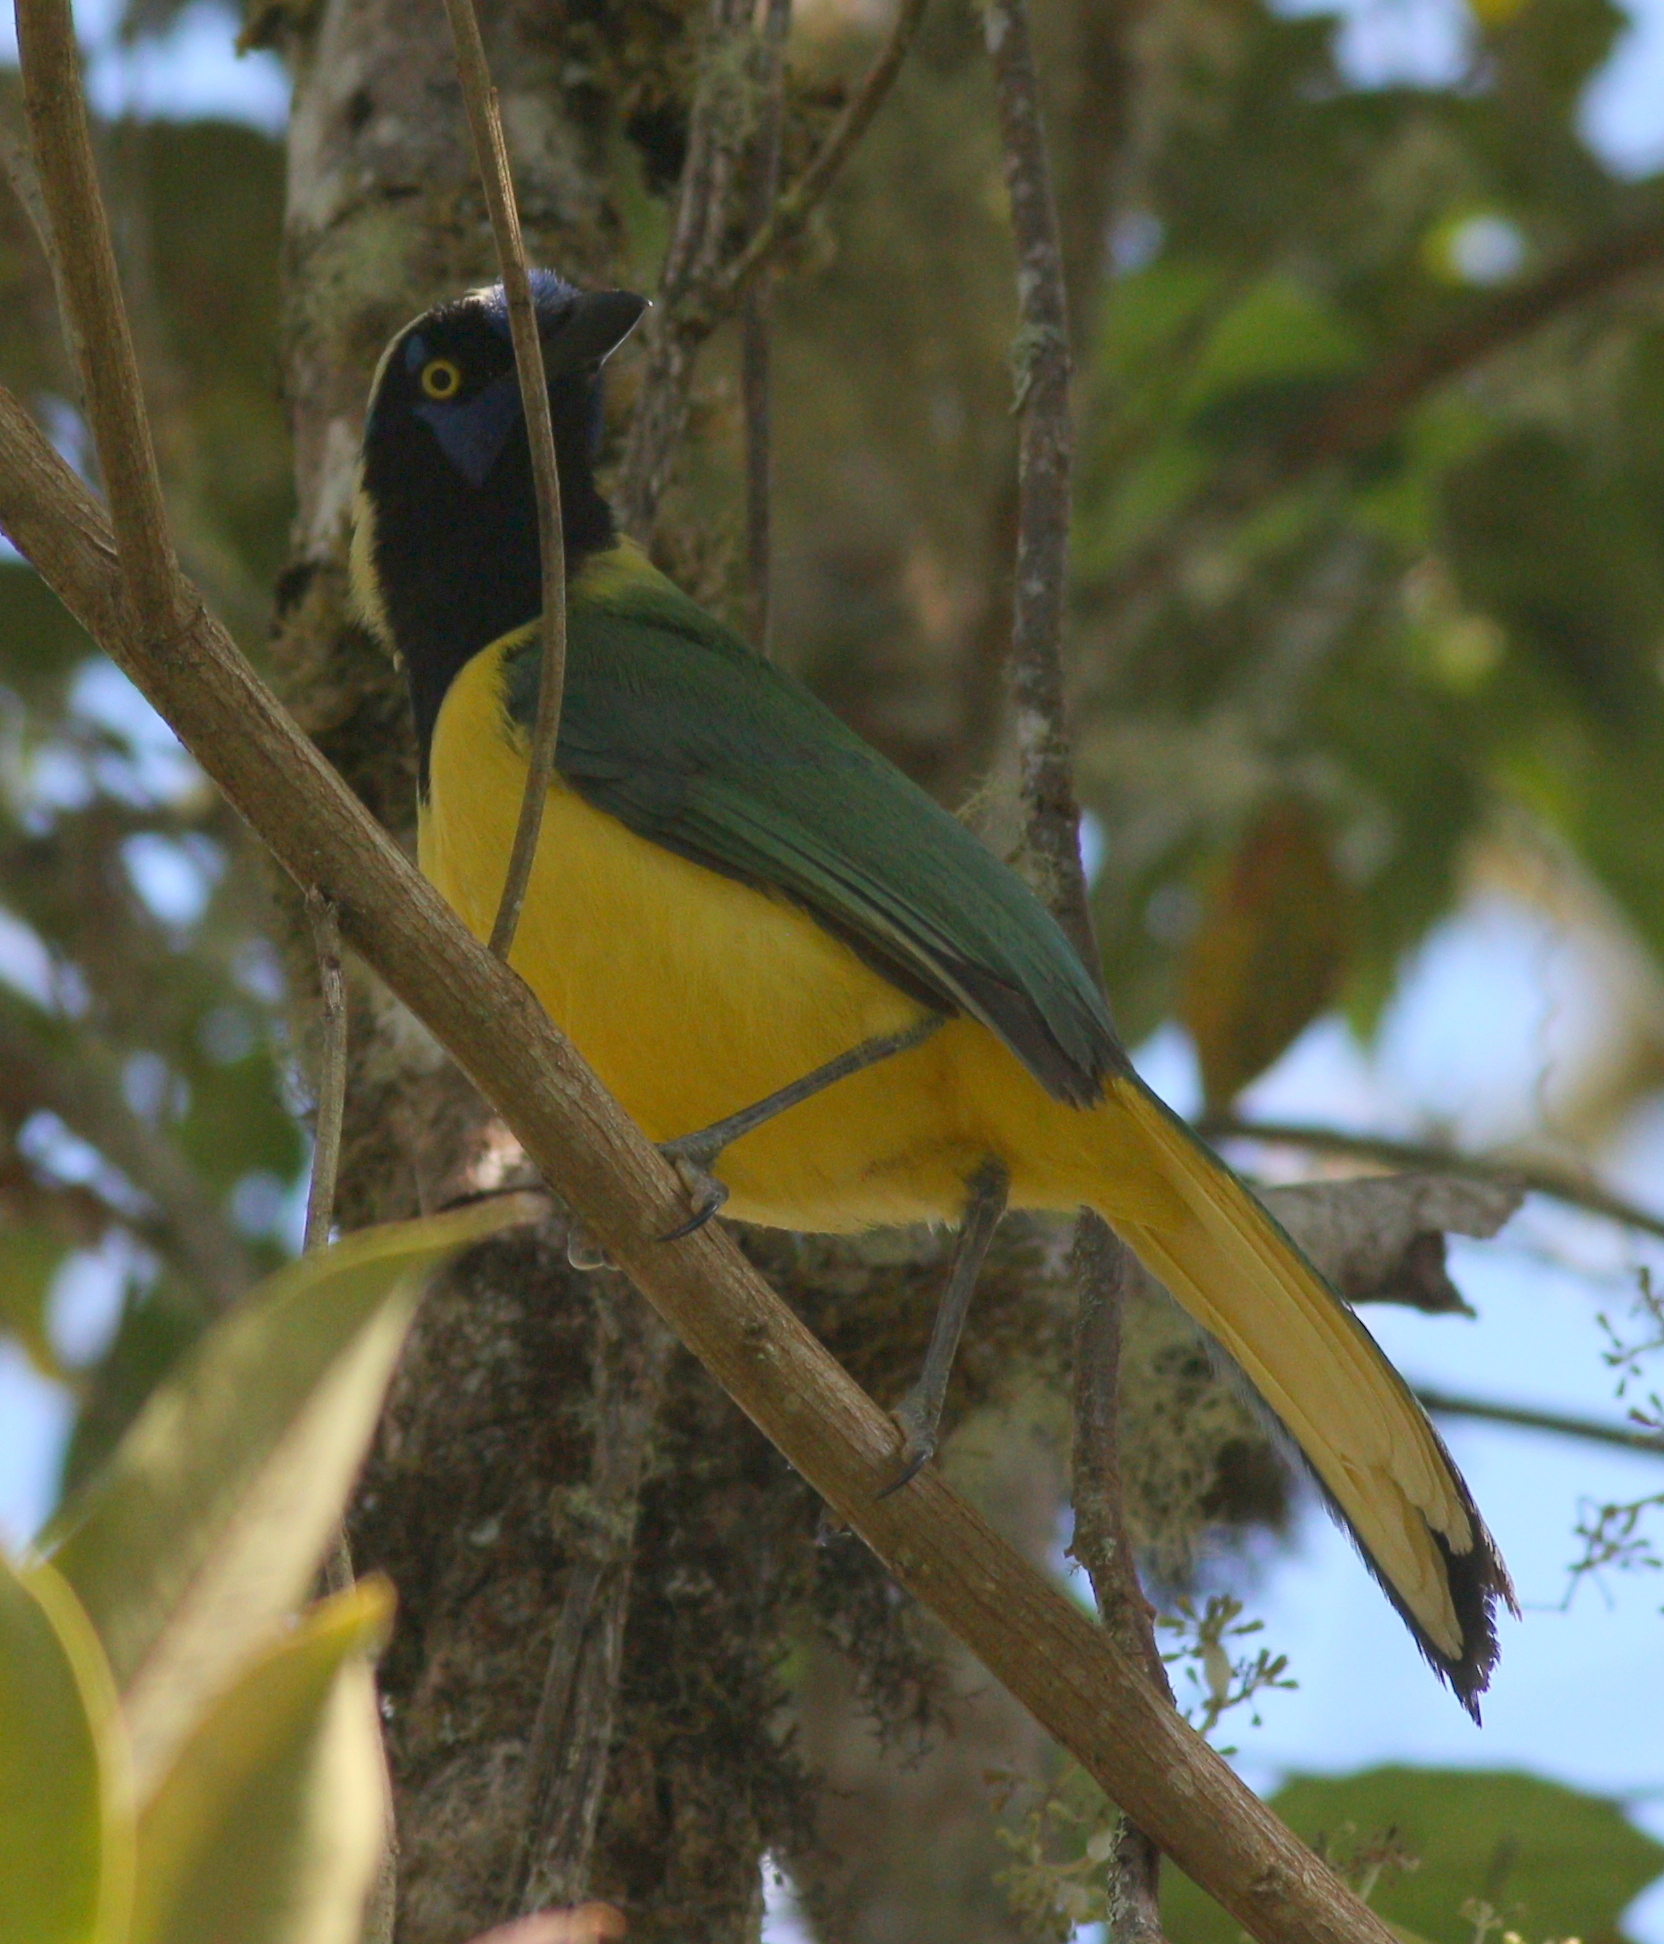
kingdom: Animalia
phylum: Chordata
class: Aves
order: Passeriformes
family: Corvidae
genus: Cyanocorax
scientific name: Cyanocorax yncas
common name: Green jay
